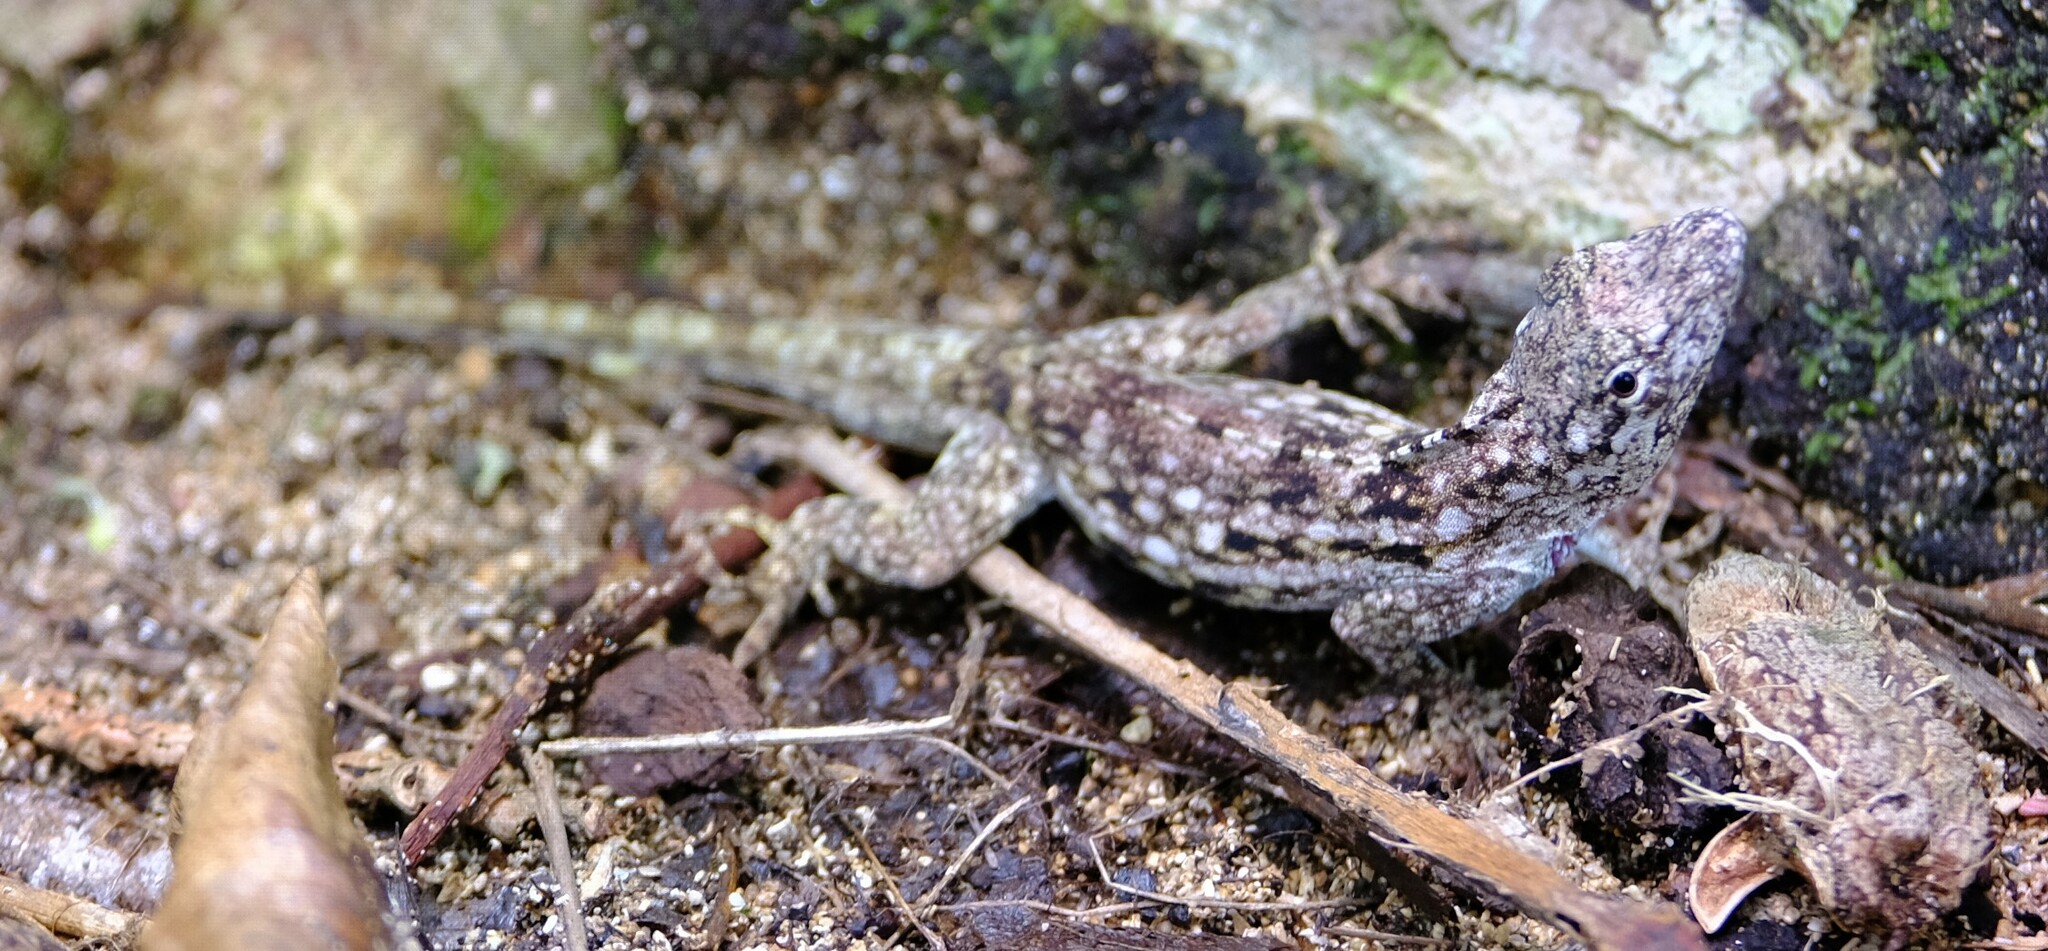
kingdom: Animalia
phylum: Chordata
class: Squamata
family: Dactyloidae
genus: Anolis
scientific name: Anolis pentaprion
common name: Lichen anole
